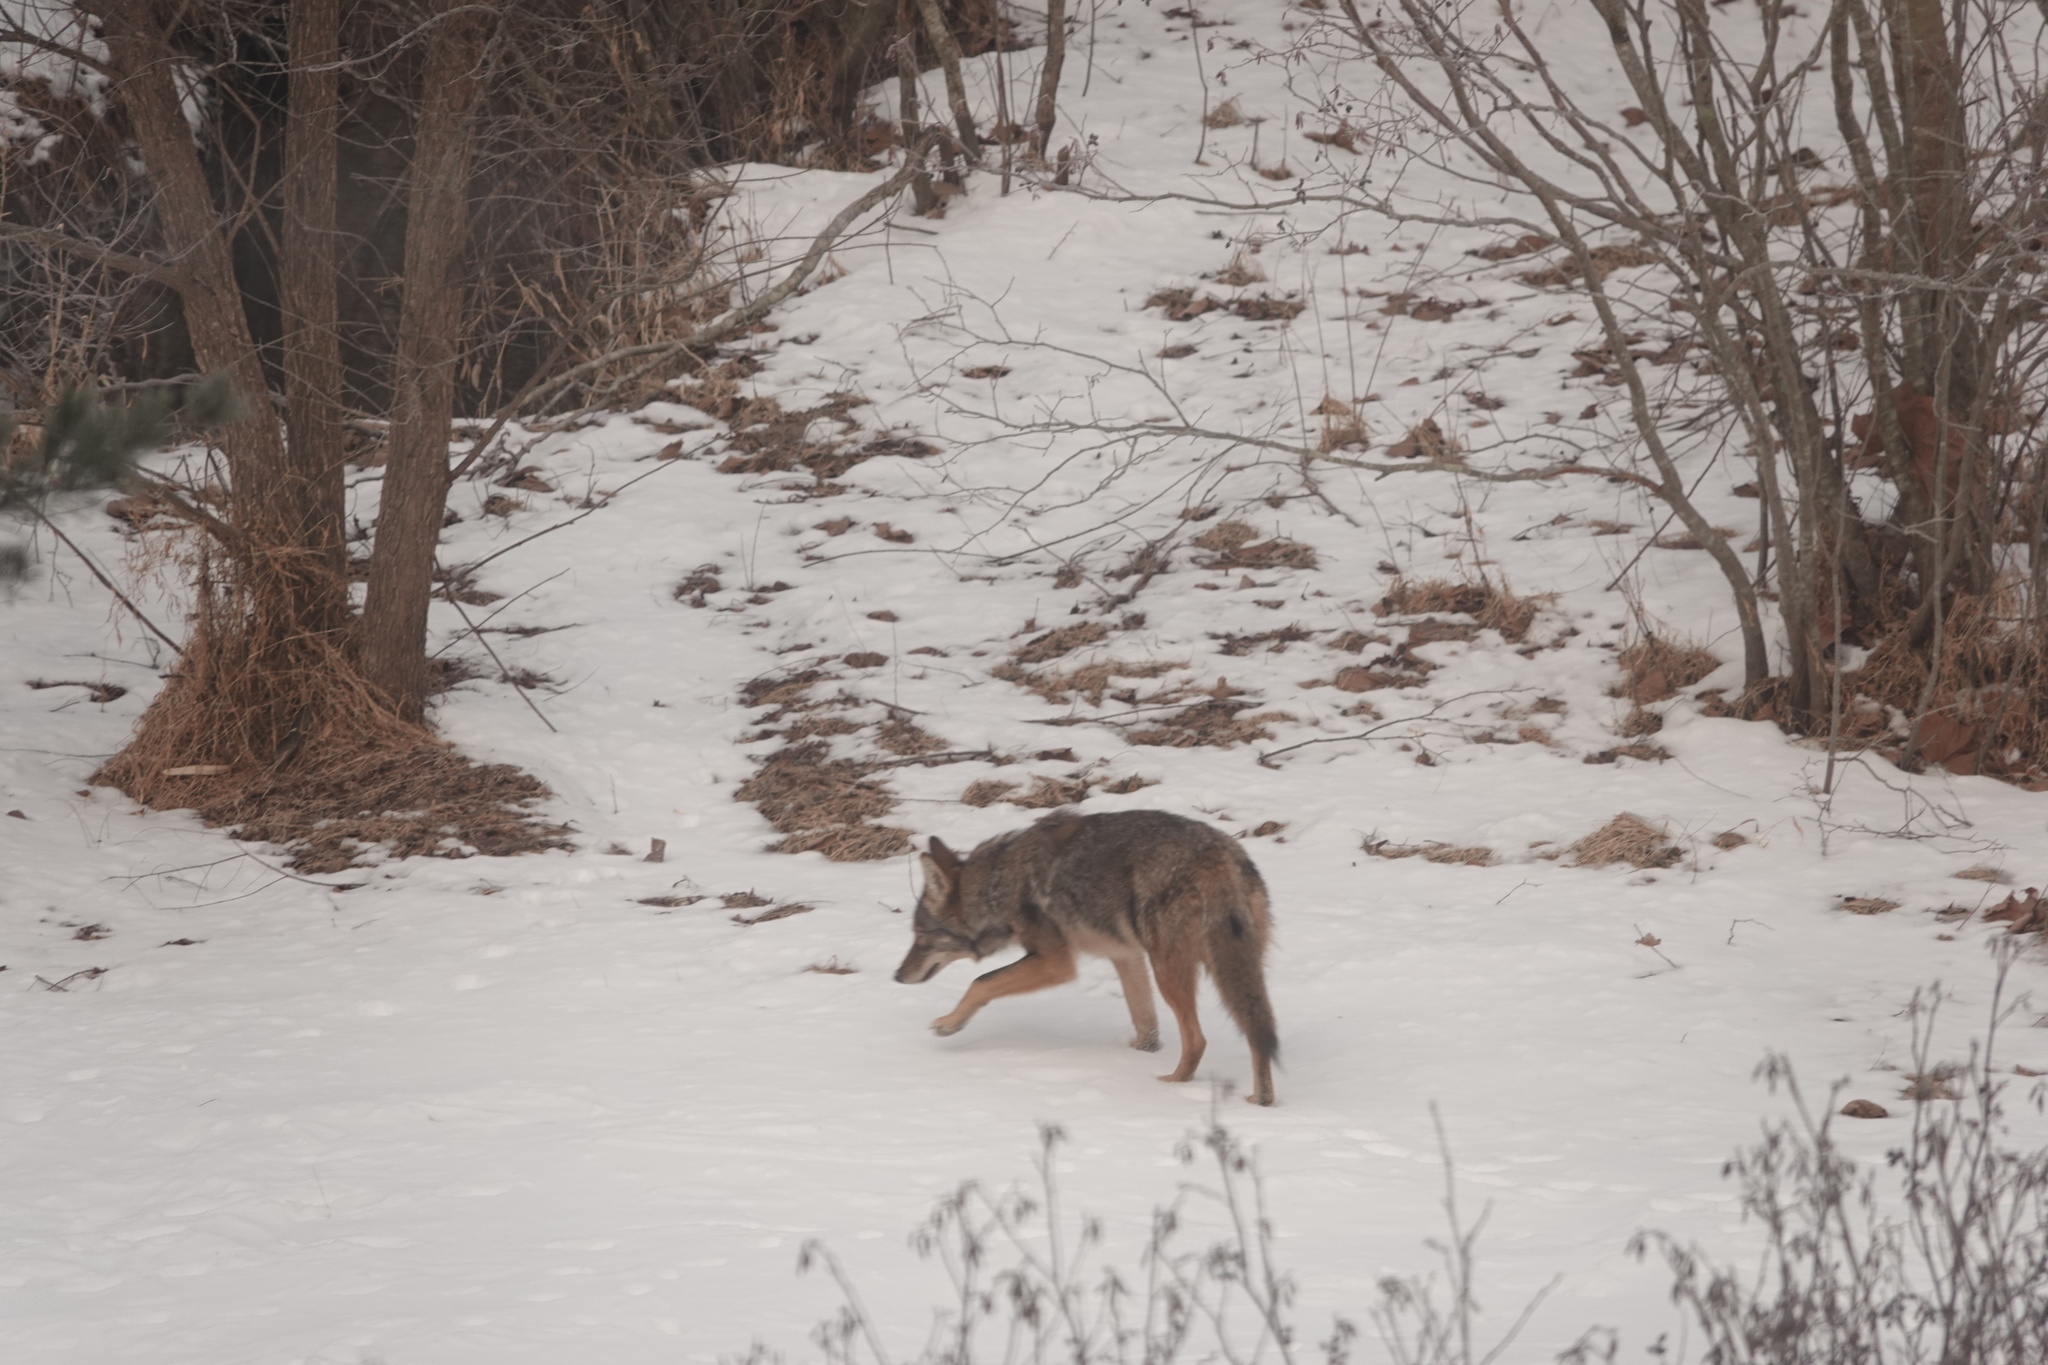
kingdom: Animalia
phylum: Chordata
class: Mammalia
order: Carnivora
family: Canidae
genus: Canis
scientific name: Canis latrans
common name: Coyote
